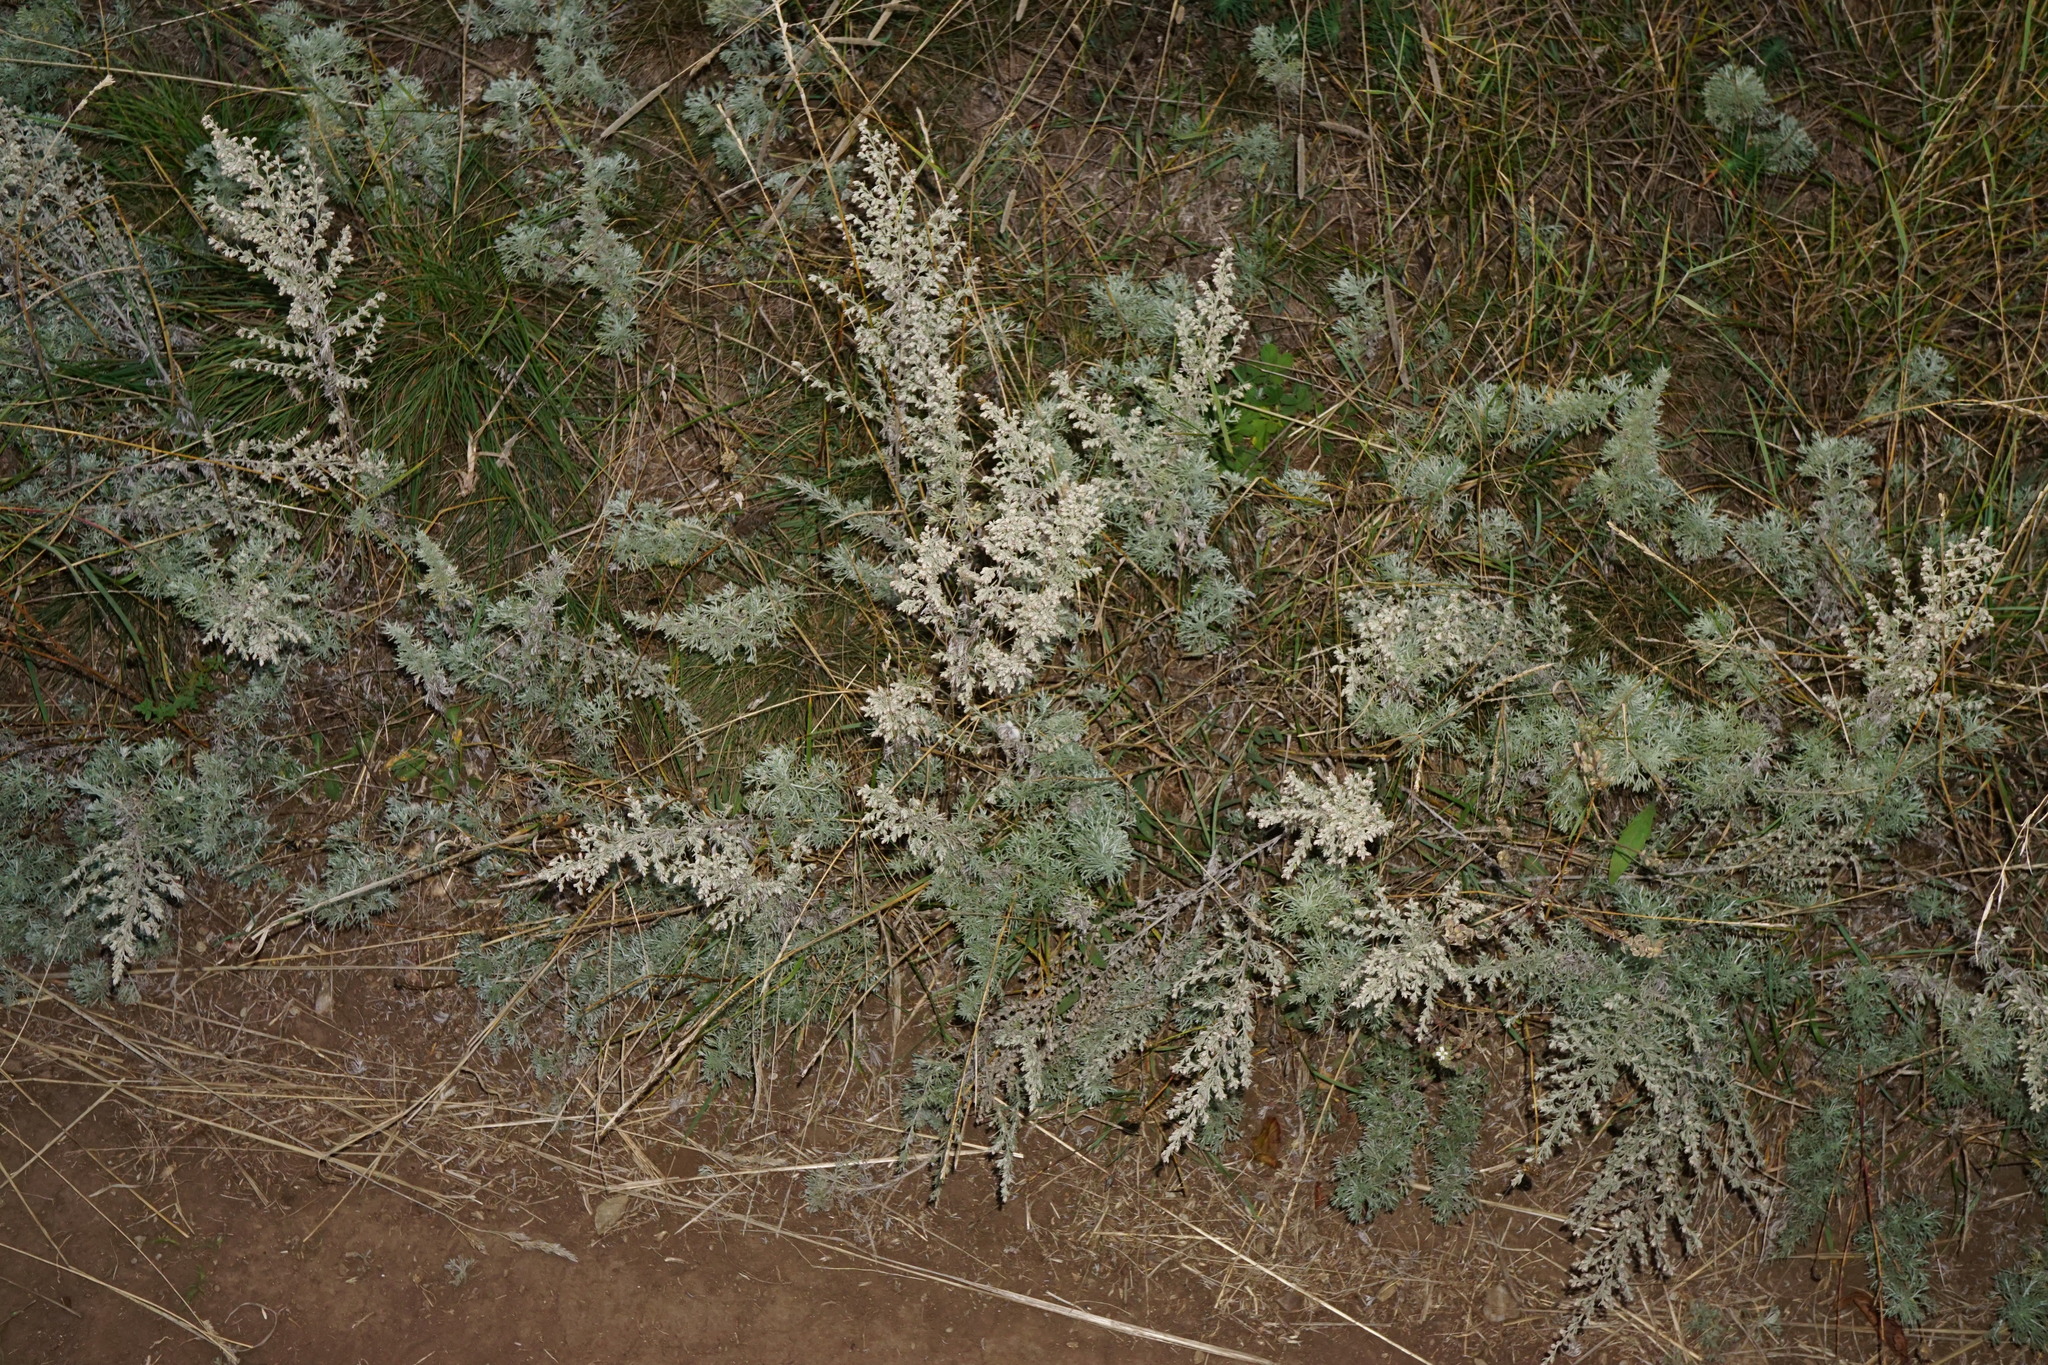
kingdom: Plantae
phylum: Tracheophyta
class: Magnoliopsida
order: Asterales
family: Asteraceae
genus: Artemisia
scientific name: Artemisia austriaca
